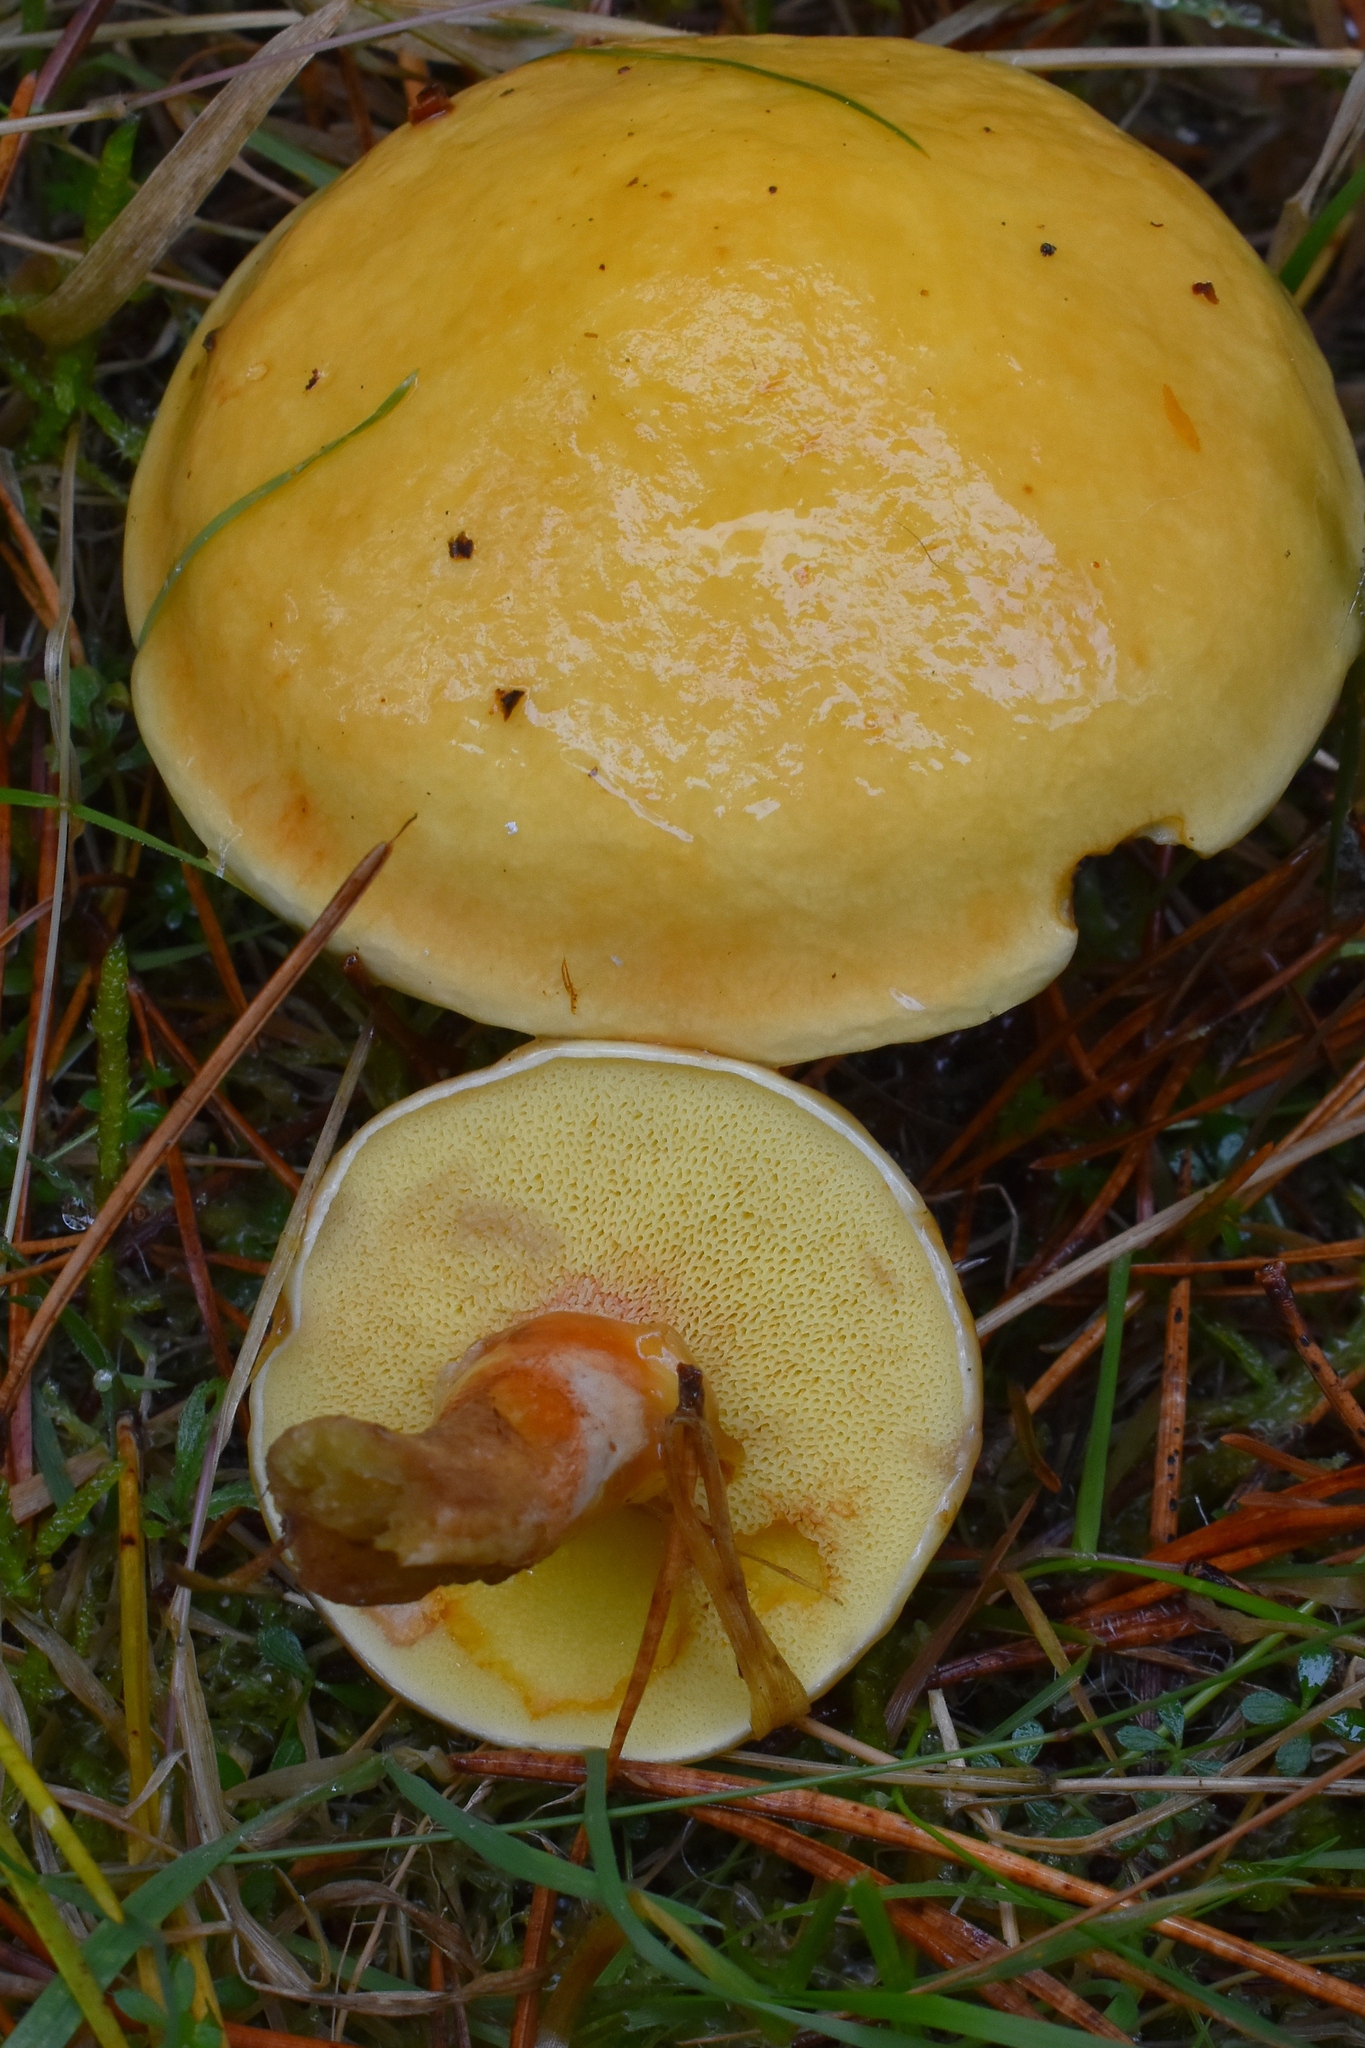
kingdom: Fungi
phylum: Basidiomycota
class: Agaricomycetes
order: Boletales
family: Suillaceae
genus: Suillus
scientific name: Suillus grevillei
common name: Larch bolete
